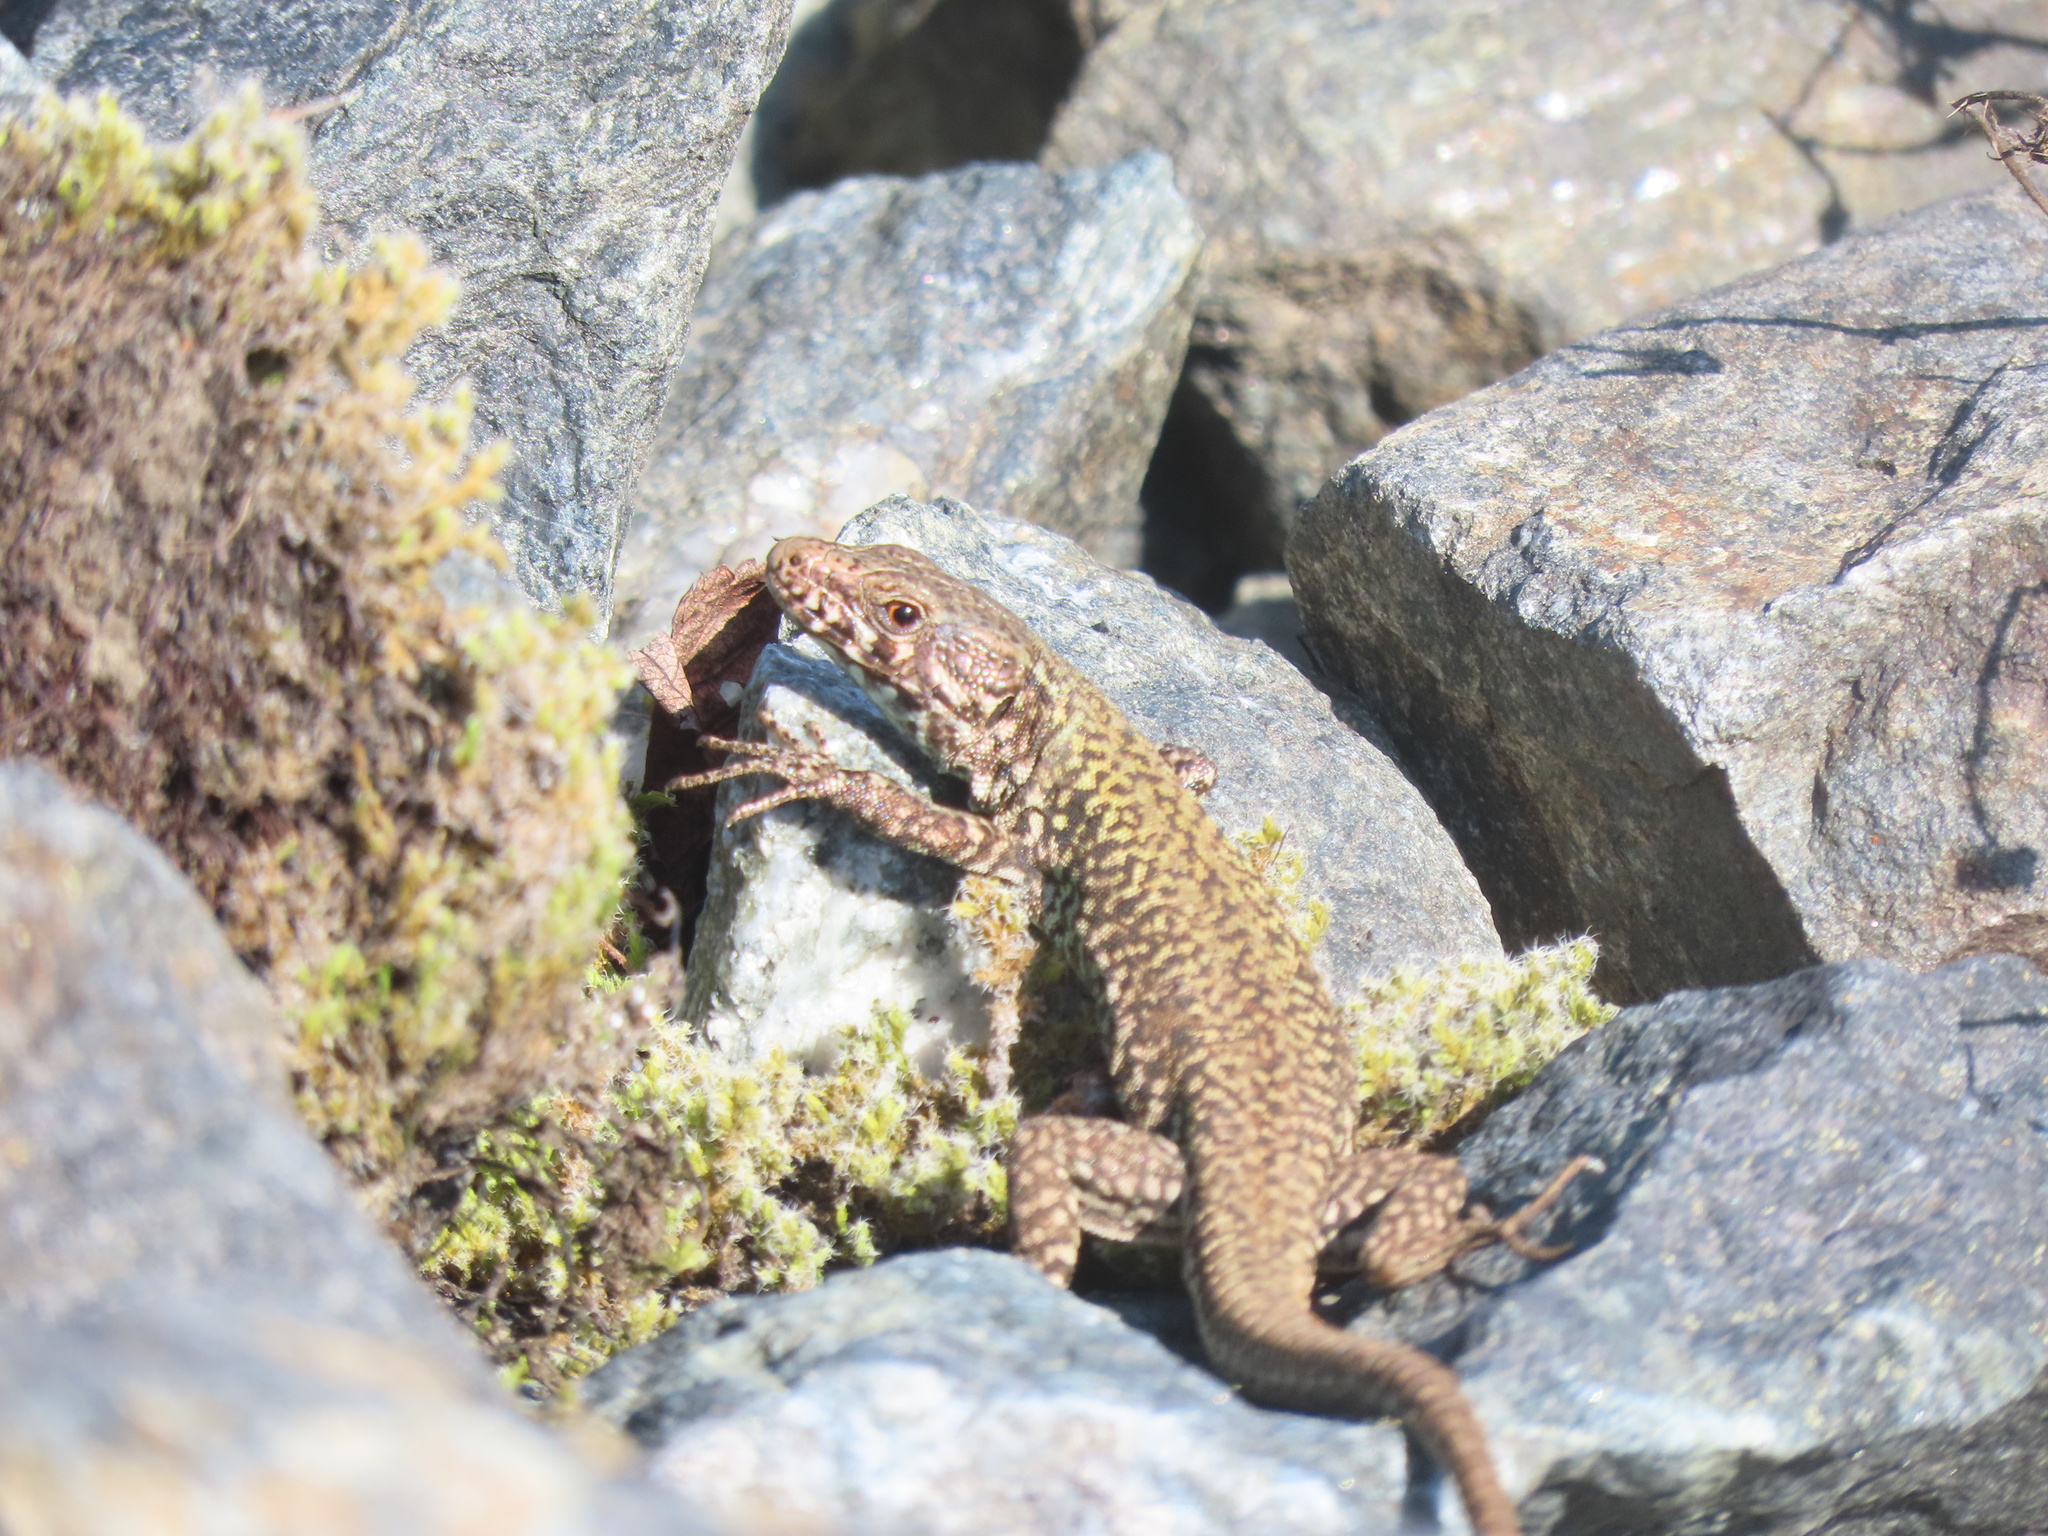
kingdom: Animalia
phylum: Chordata
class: Squamata
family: Lacertidae
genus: Podarcis
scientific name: Podarcis muralis
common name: Common wall lizard
